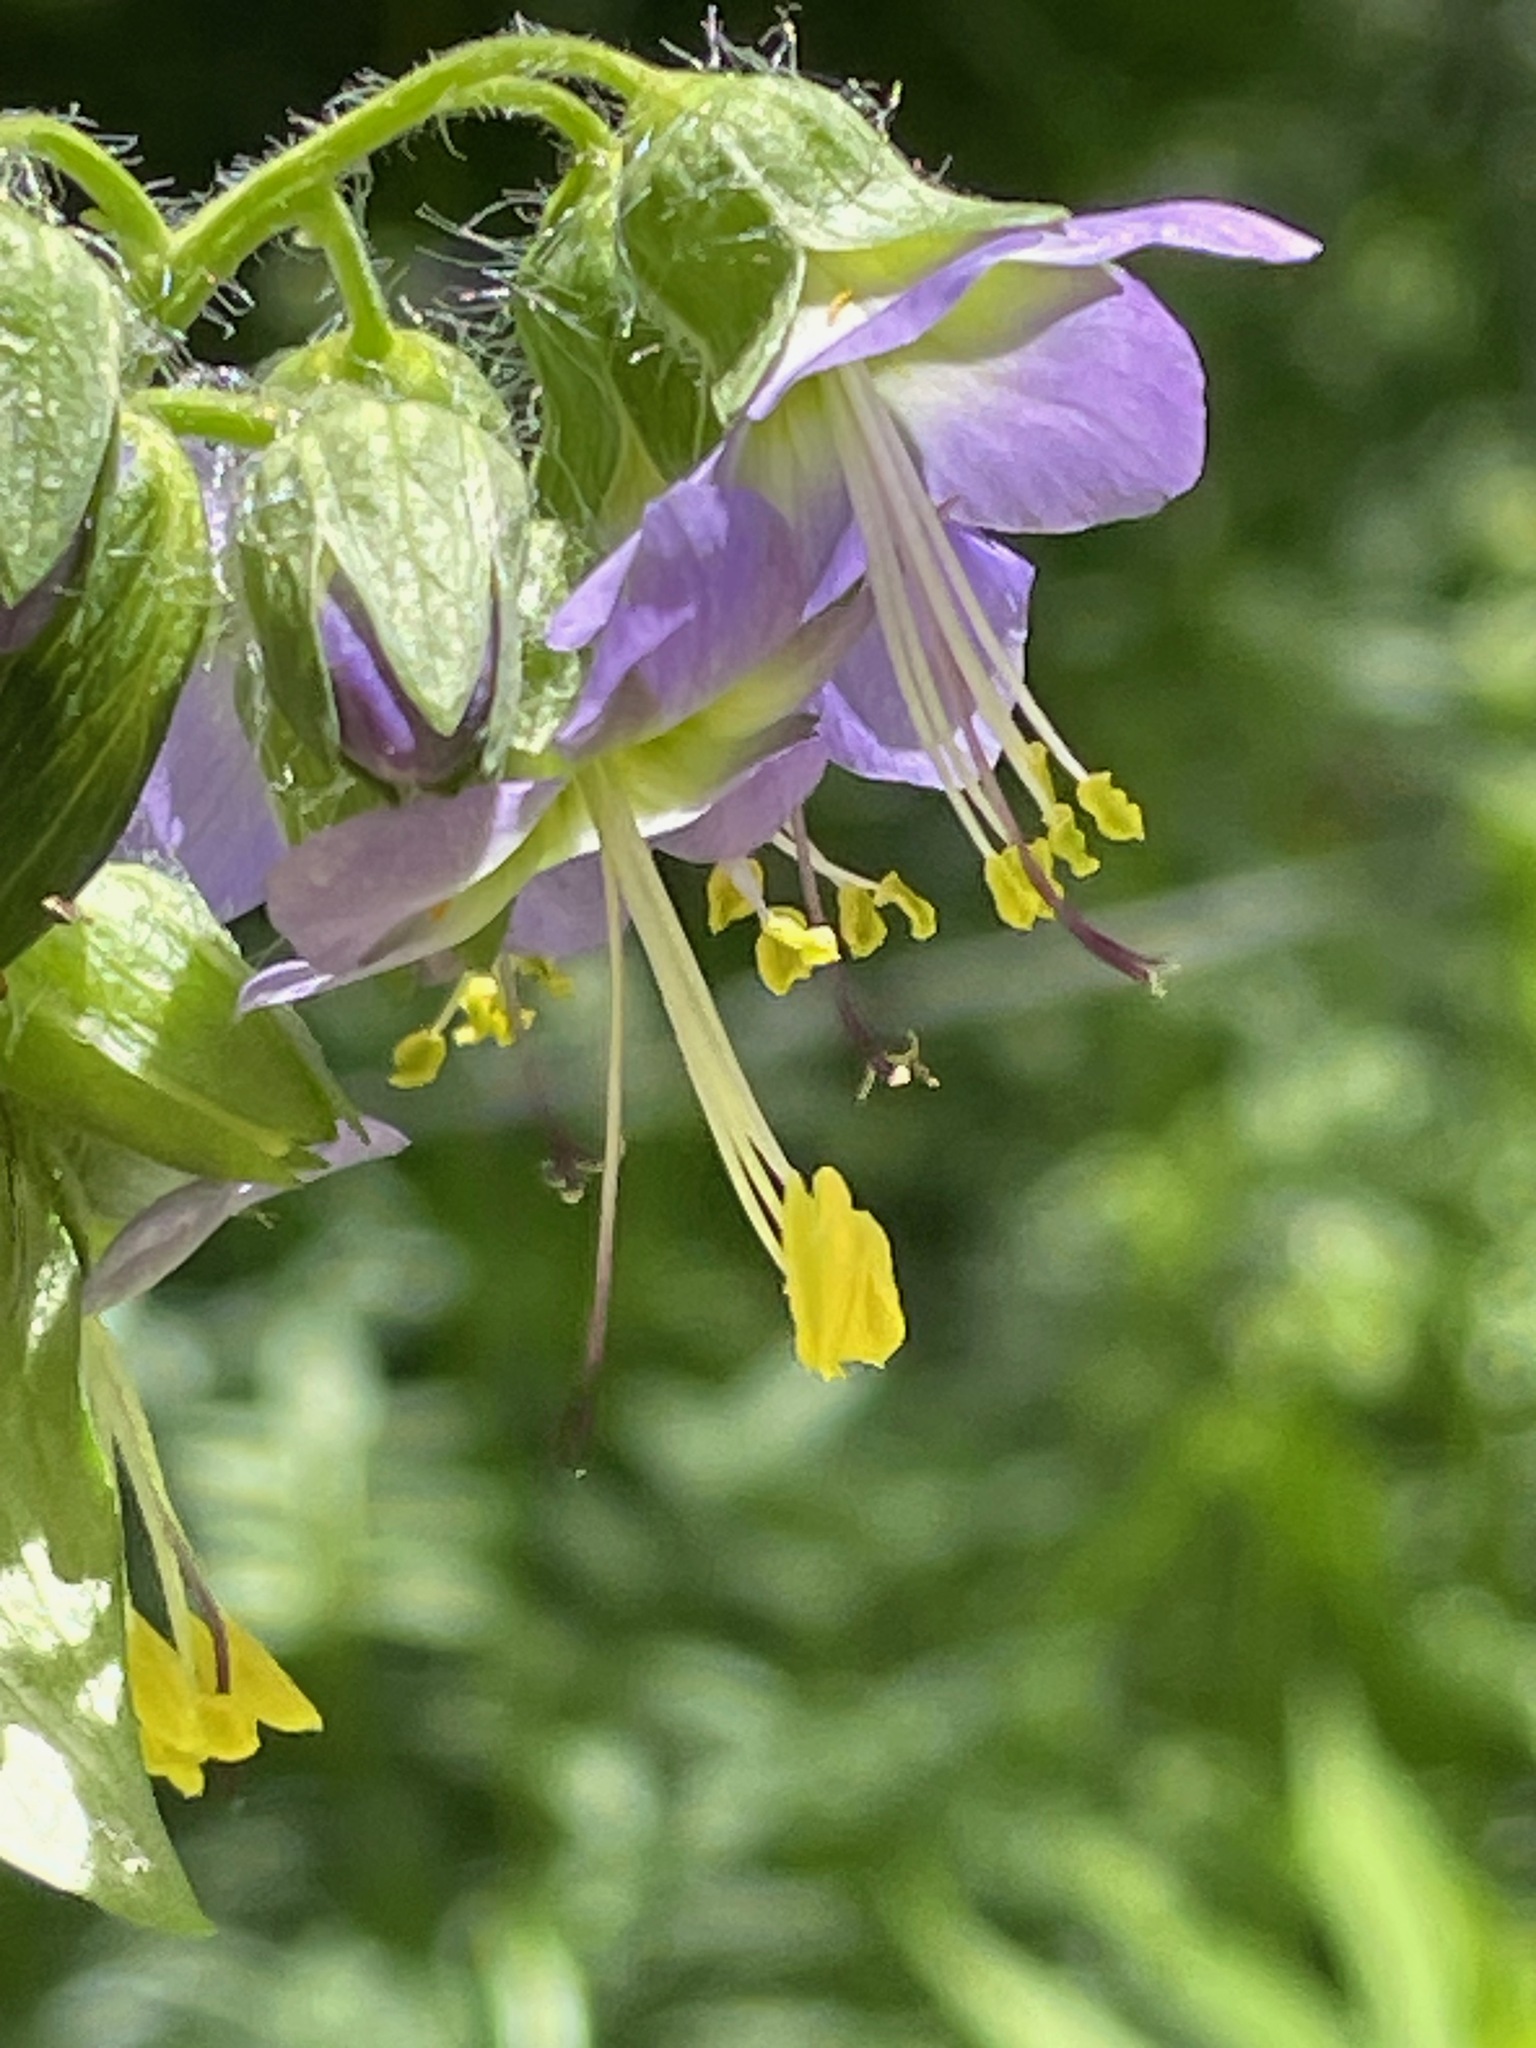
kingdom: Plantae
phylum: Tracheophyta
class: Magnoliopsida
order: Ericales
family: Polemoniaceae
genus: Polemonium
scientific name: Polemonium vanbruntiae
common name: Bog jacob's-ladder
